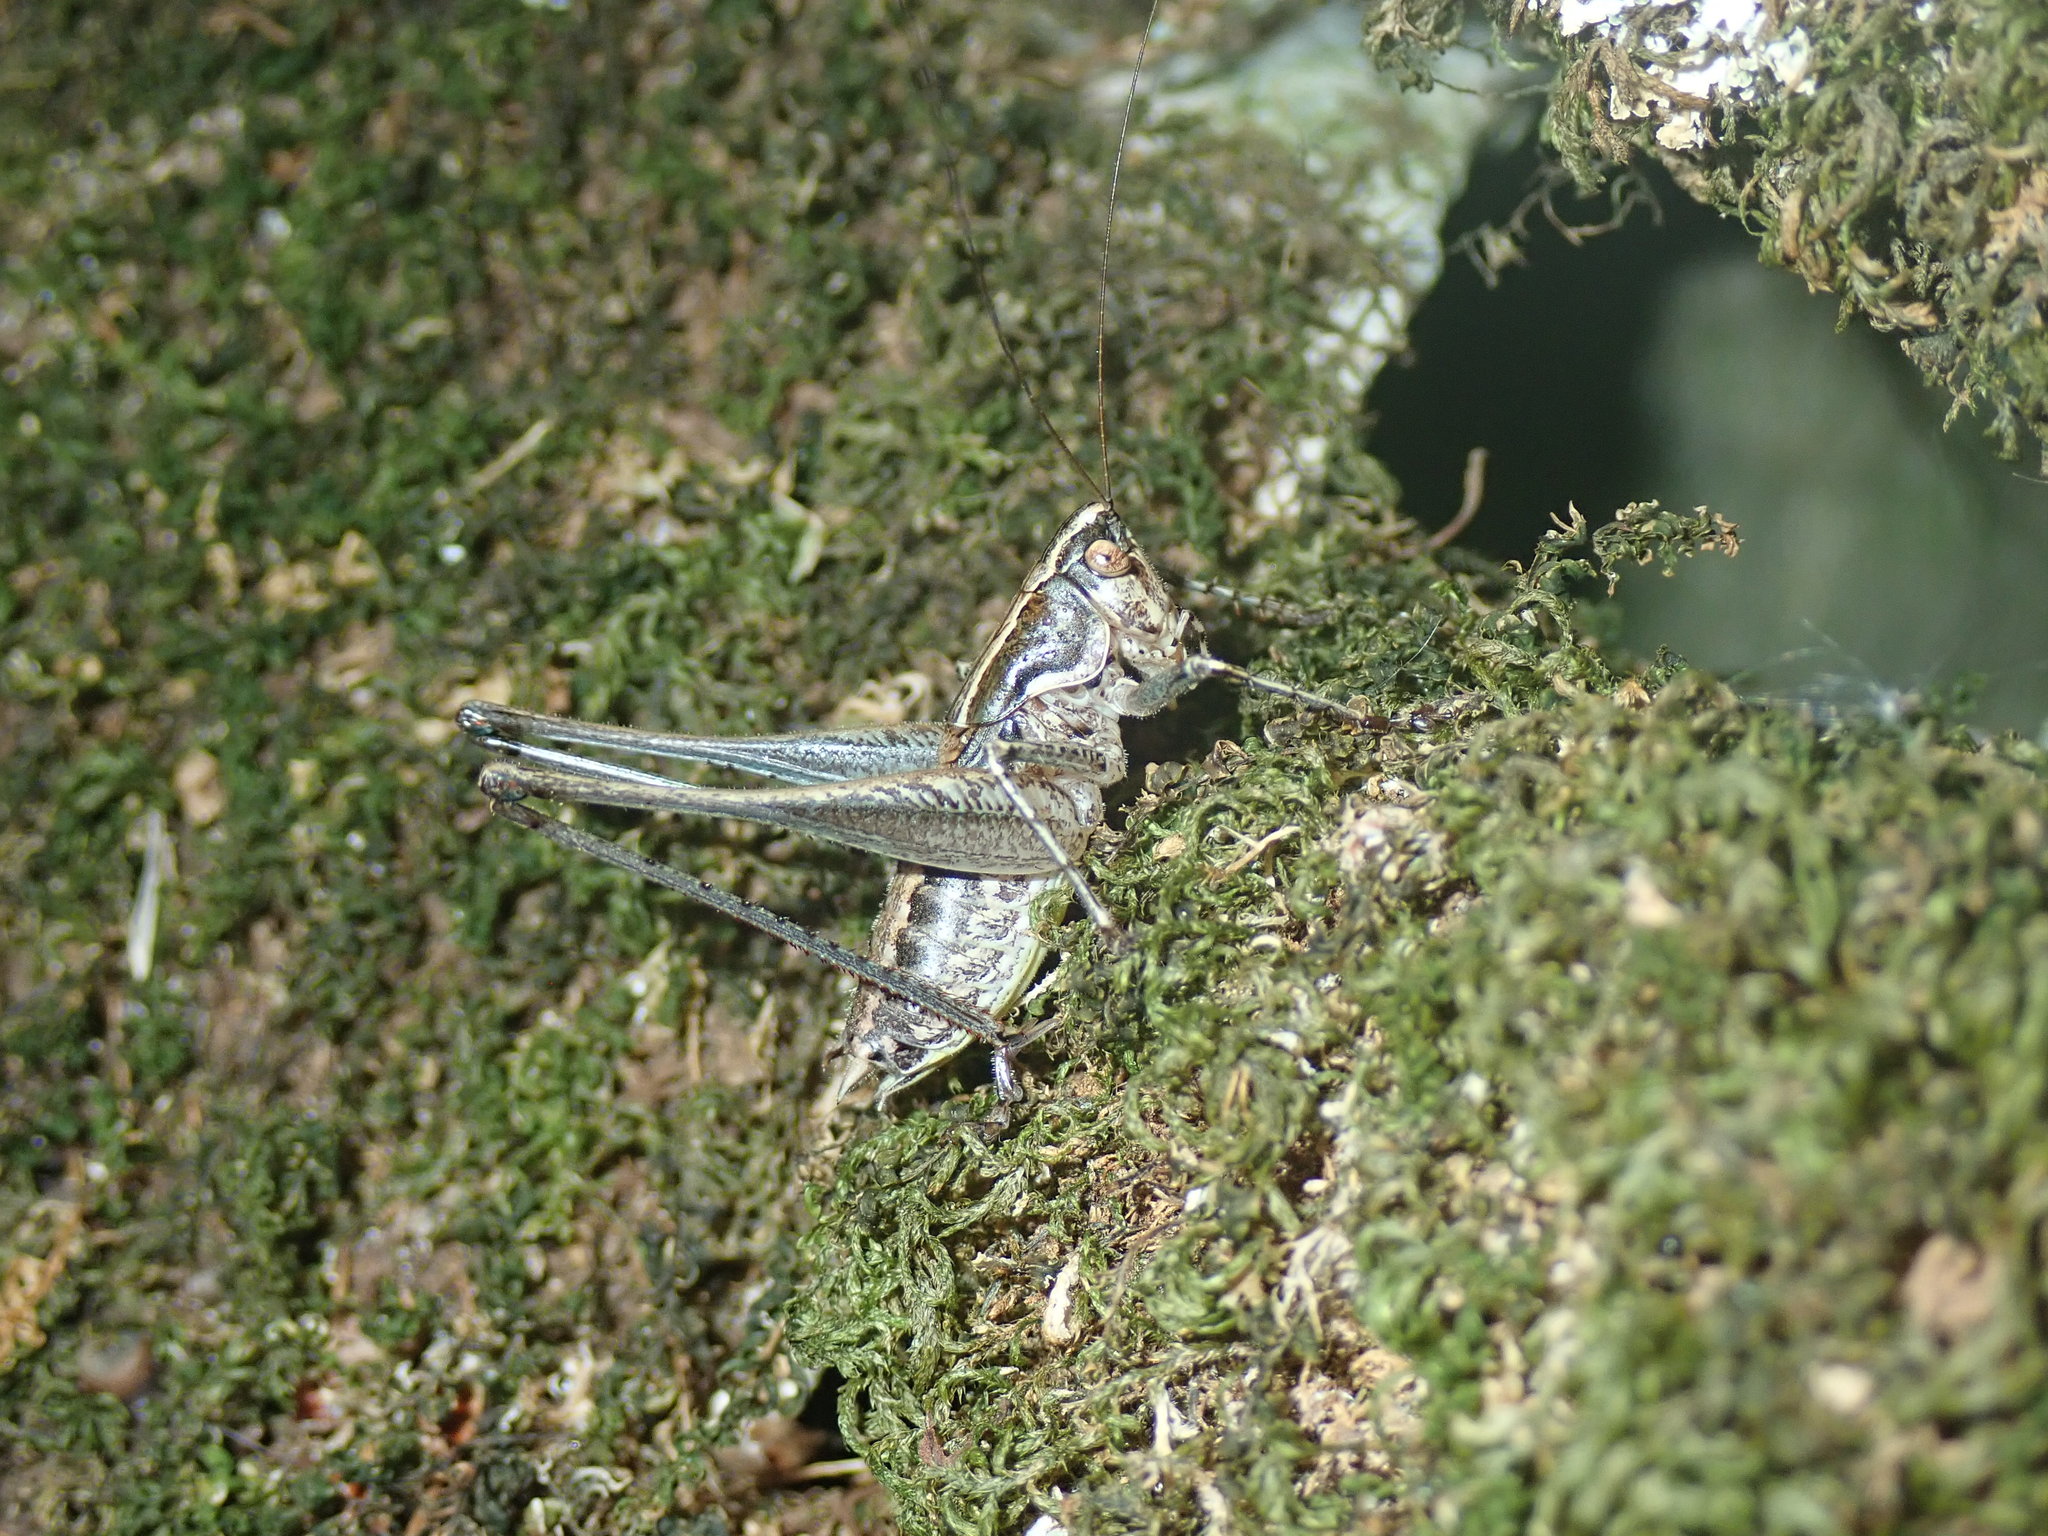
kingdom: Animalia
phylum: Arthropoda
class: Insecta
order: Orthoptera
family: Tettigoniidae
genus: Rhacocleis
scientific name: Rhacocleis germanica
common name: Mediterranean bush-cricket
